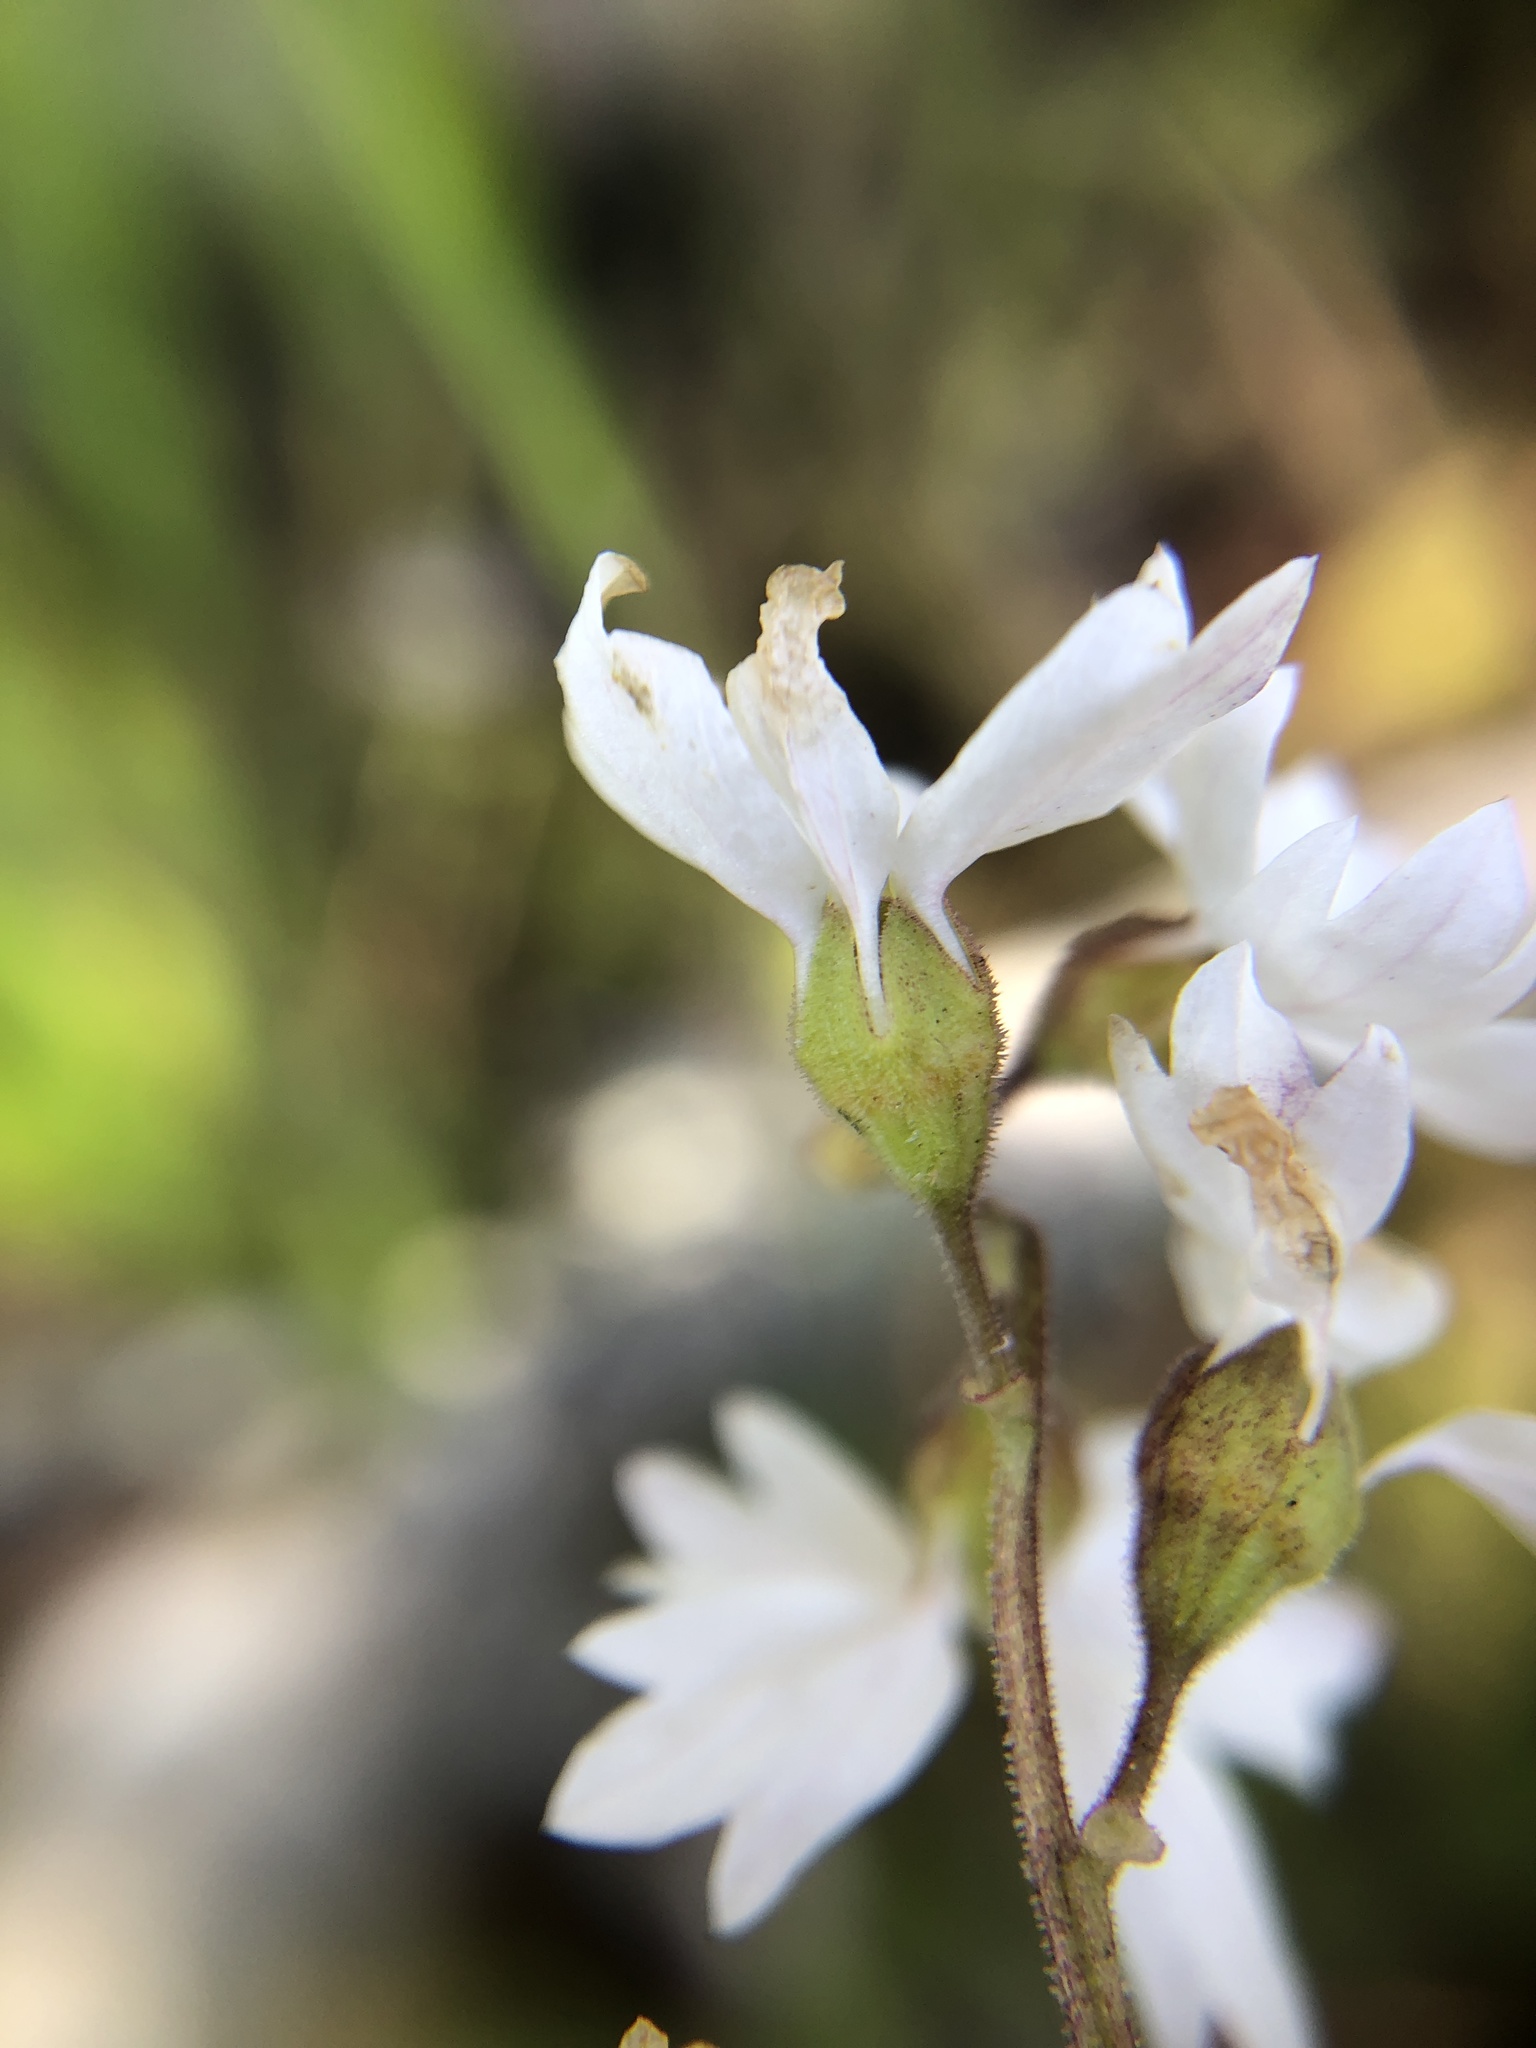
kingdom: Plantae
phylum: Tracheophyta
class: Magnoliopsida
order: Saxifragales
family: Saxifragaceae
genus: Lithophragma
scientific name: Lithophragma affine
